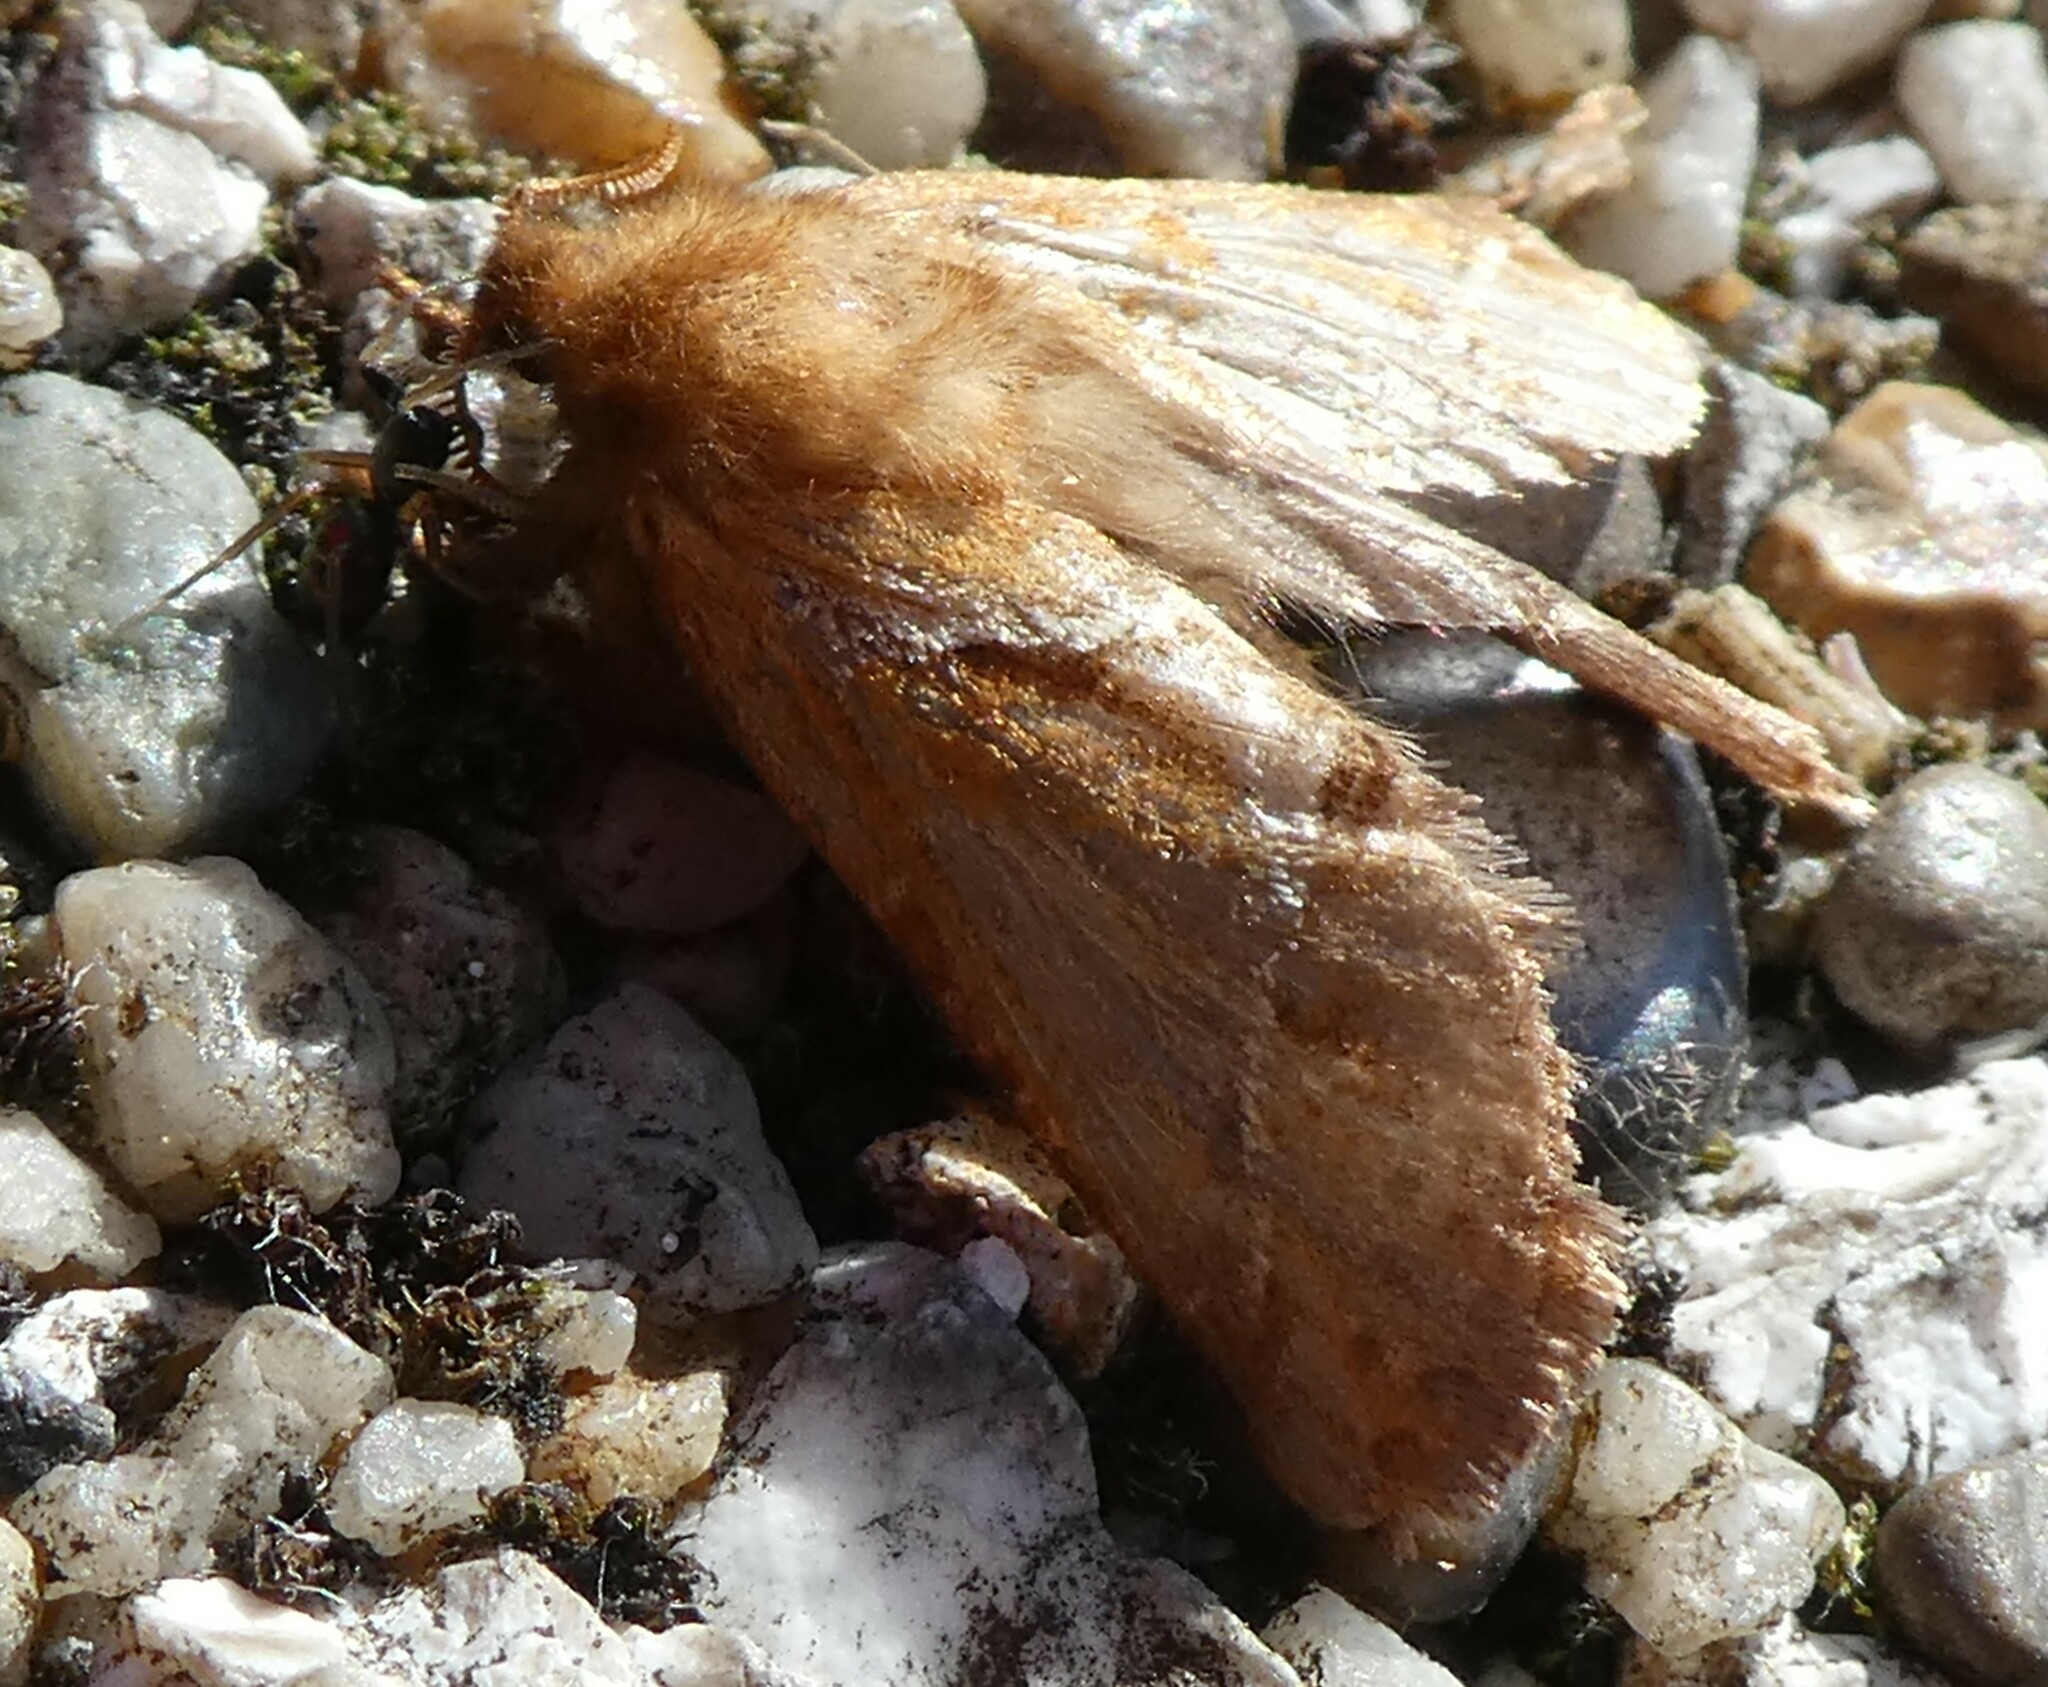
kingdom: Animalia
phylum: Arthropoda
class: Insecta
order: Lepidoptera
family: Hepialidae
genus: Triodia
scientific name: Triodia sylvina
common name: Orange swift
